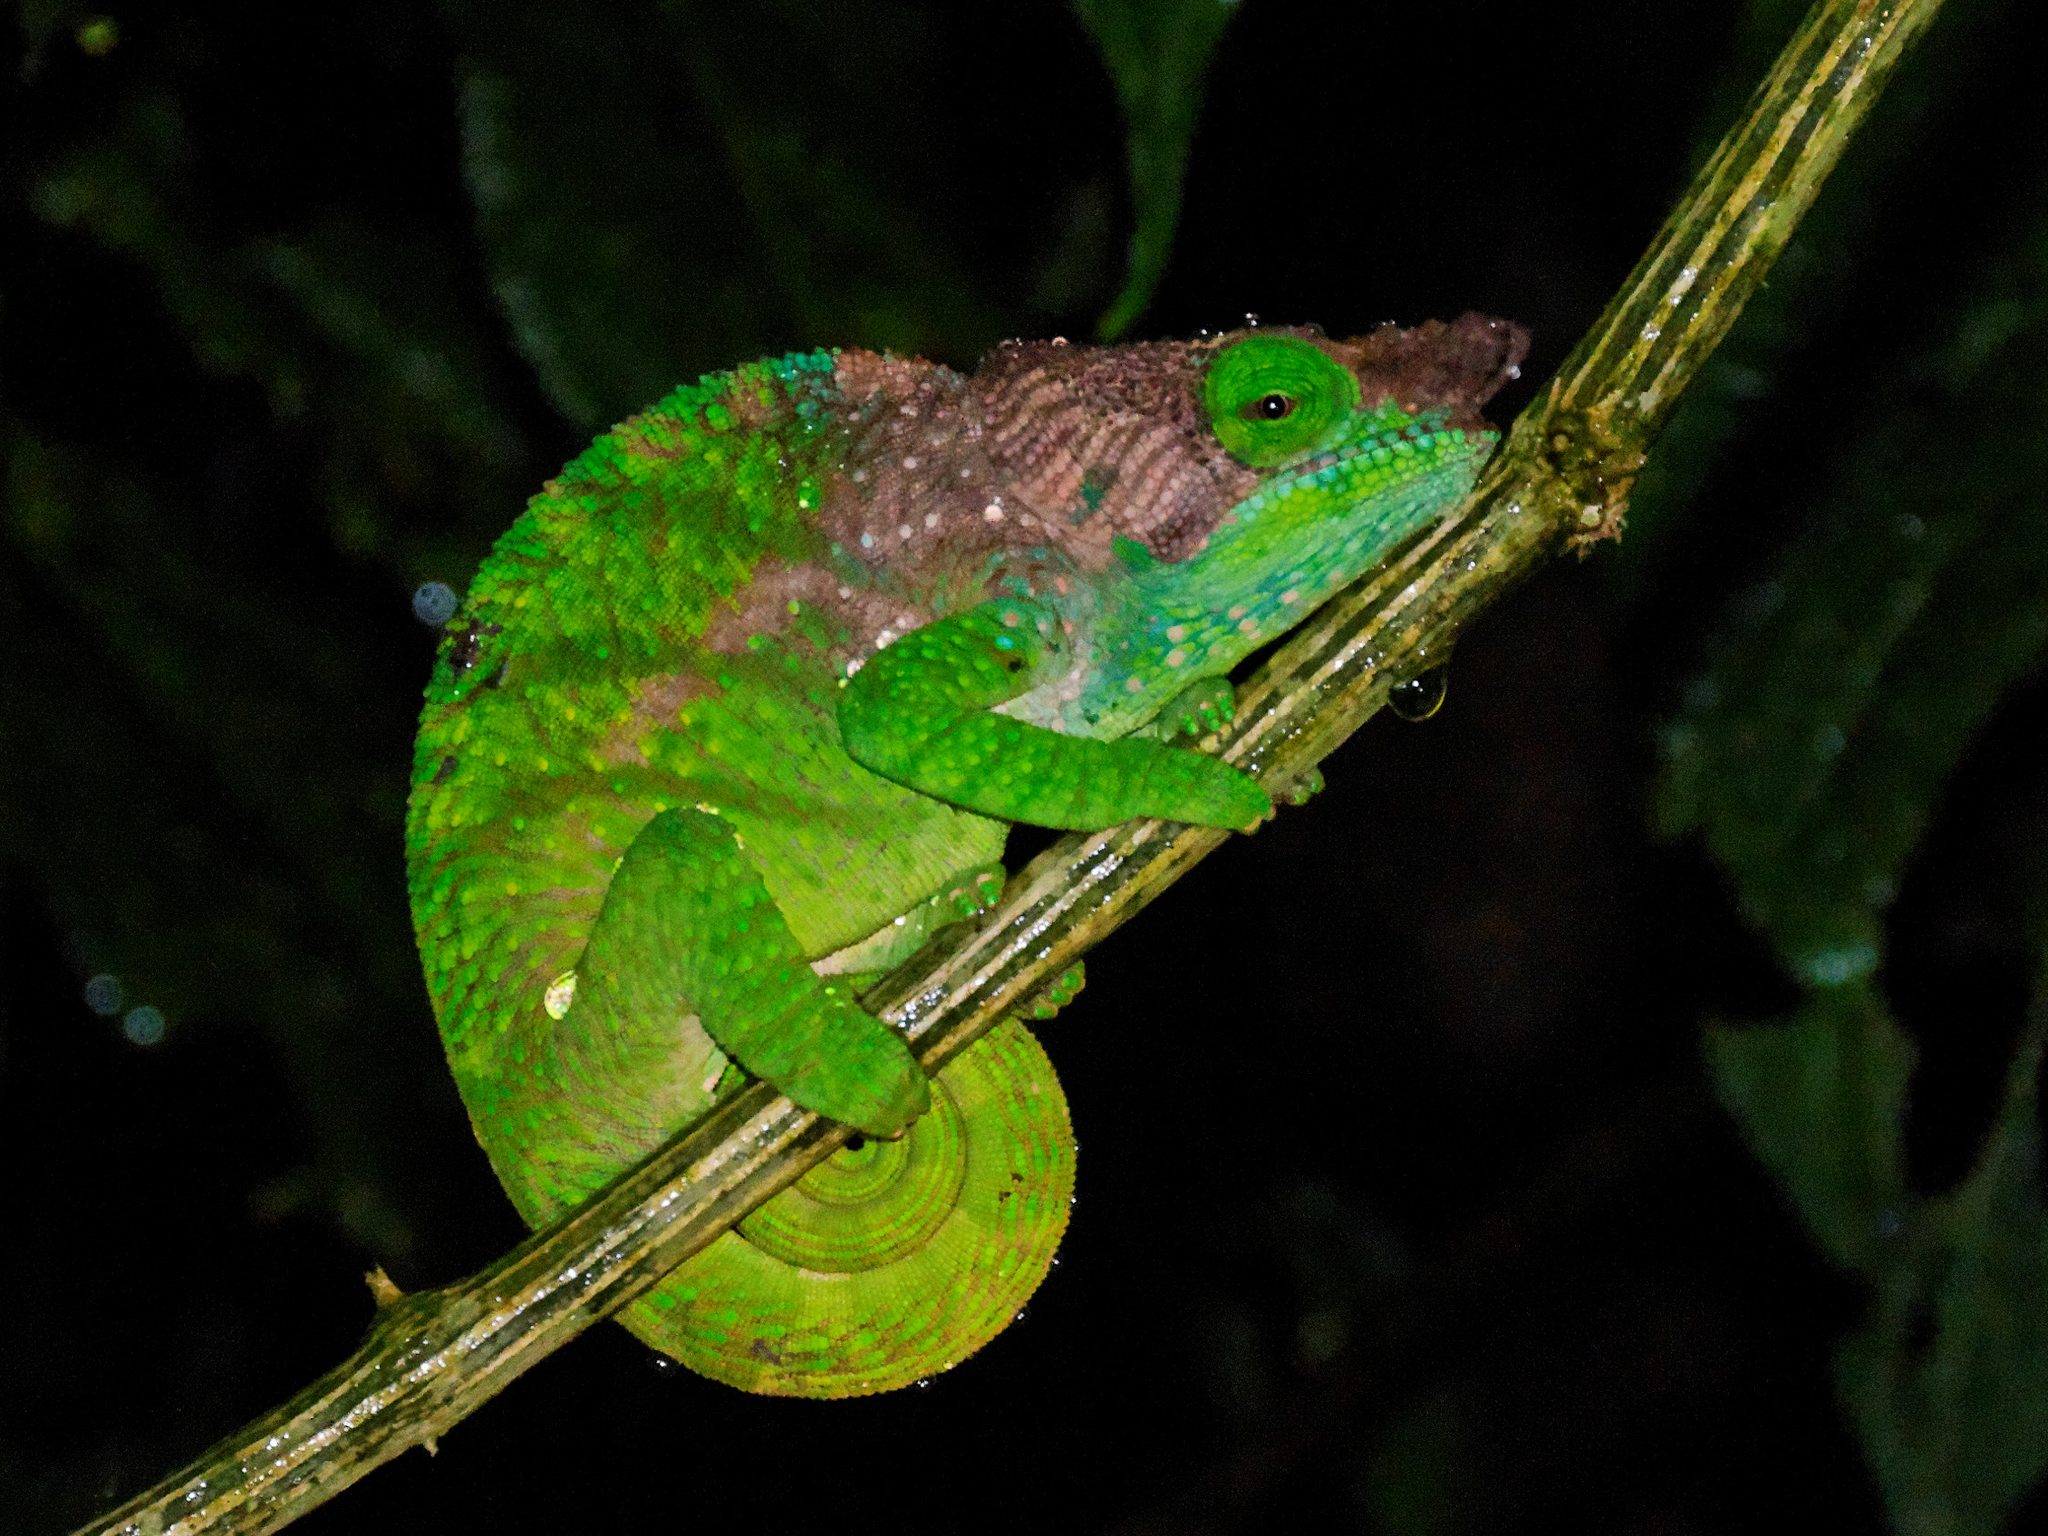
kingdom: Animalia
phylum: Chordata
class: Squamata
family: Chamaeleonidae
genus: Calumma
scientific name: Calumma oshaughnessyi
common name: O'shaughnessy's chameleon
